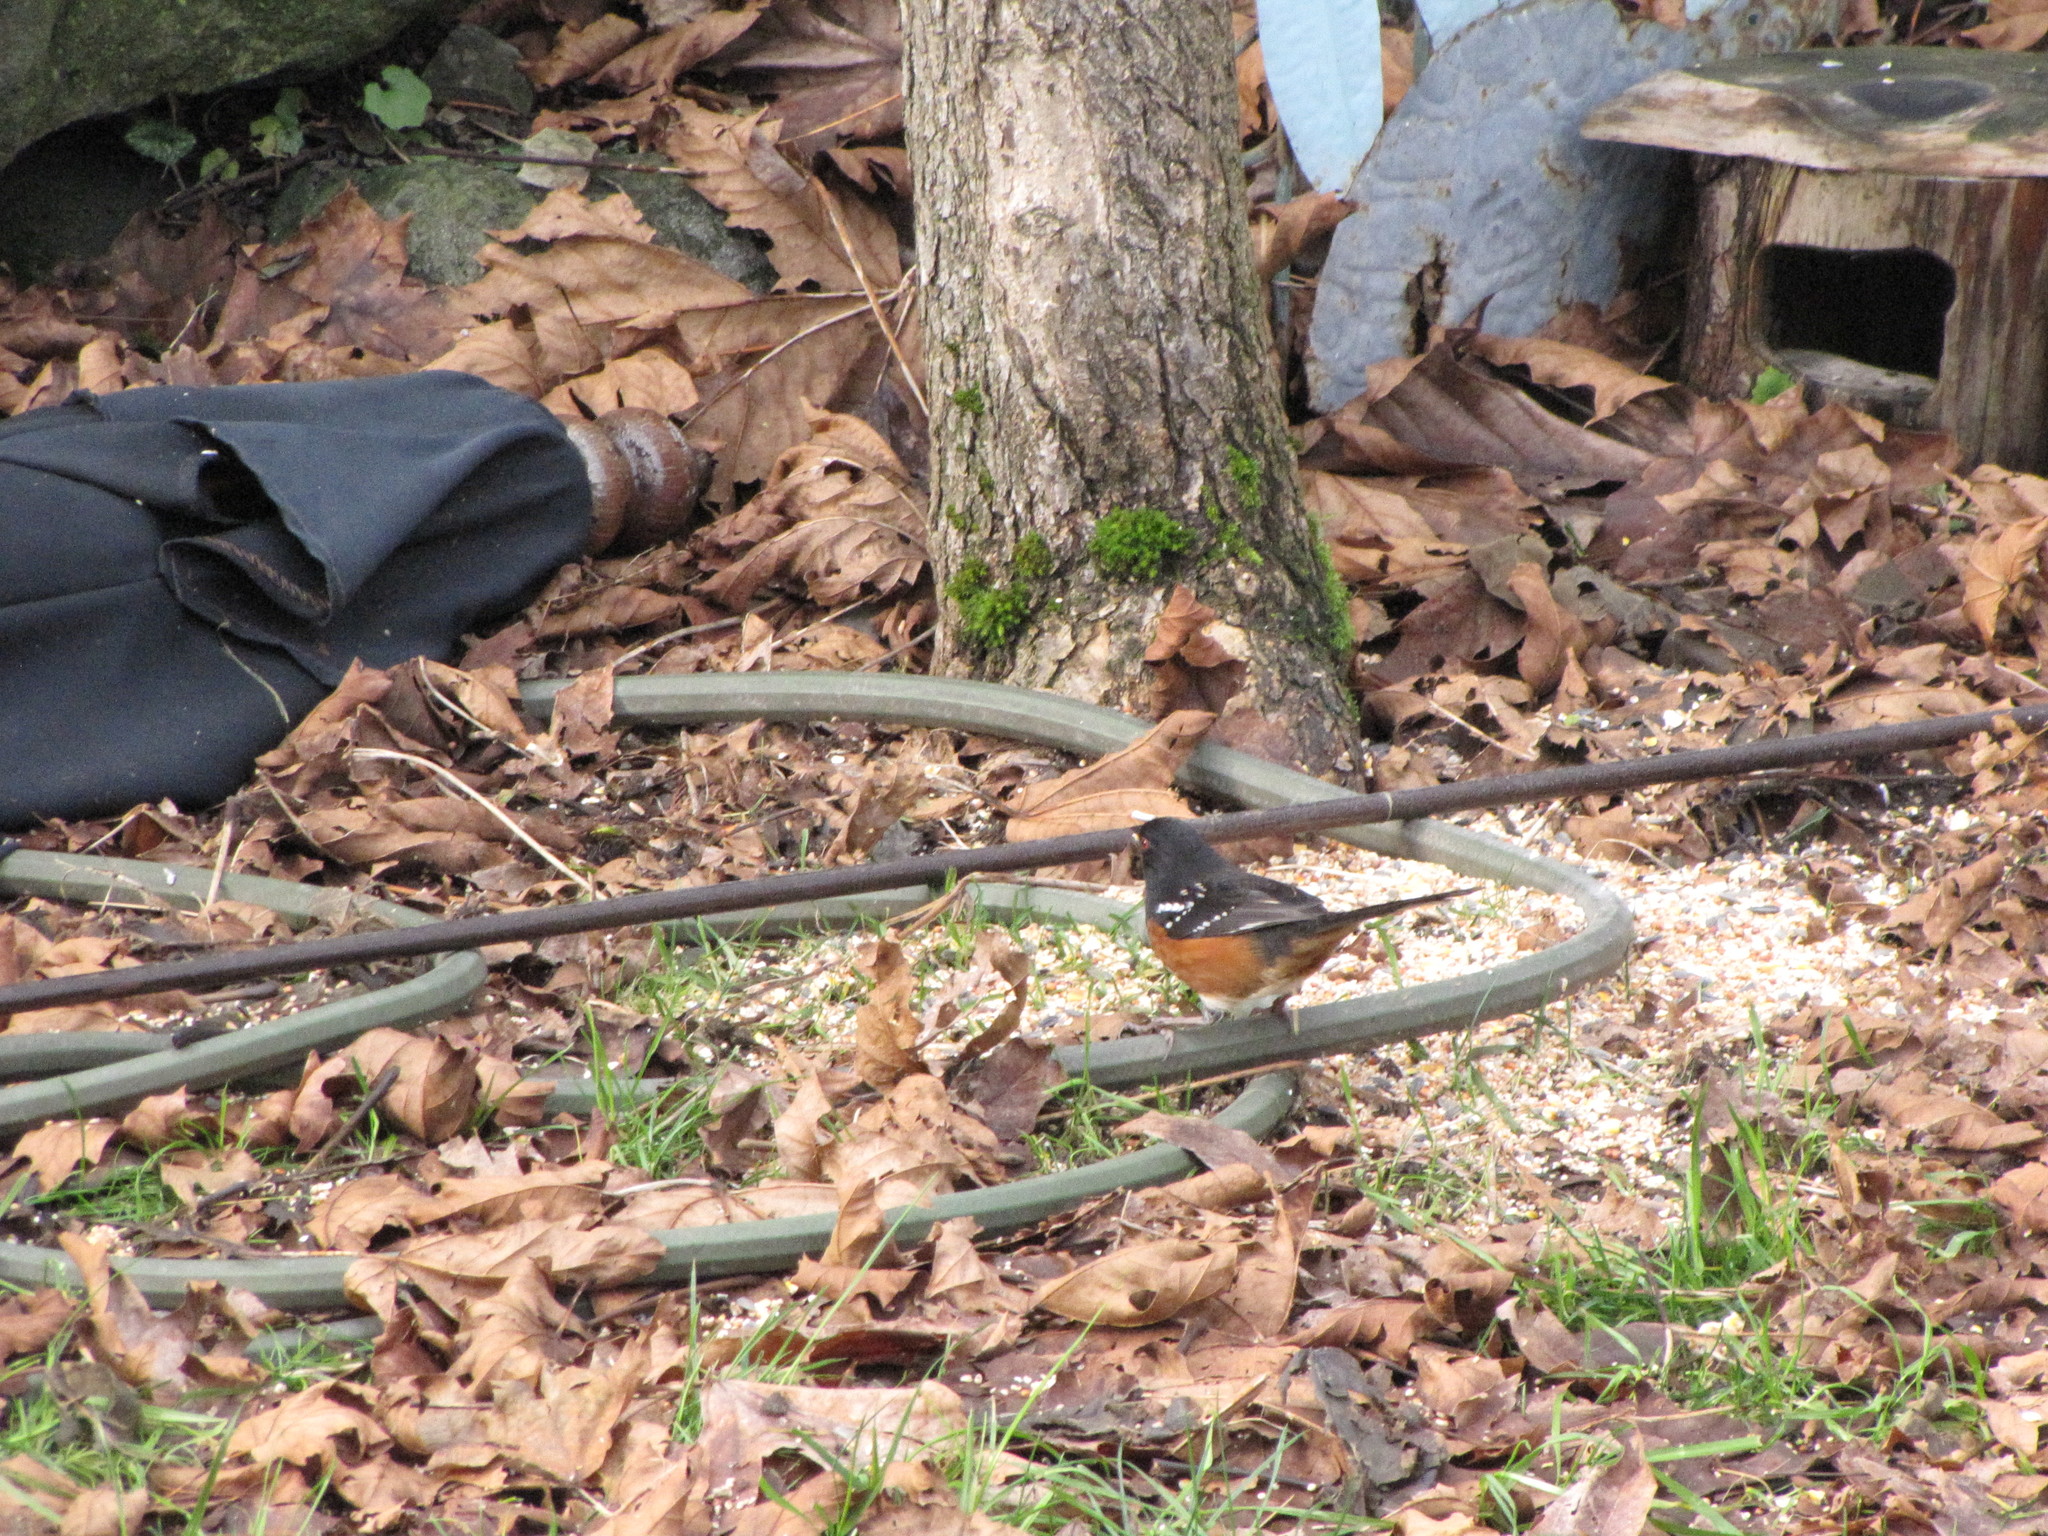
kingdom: Animalia
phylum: Chordata
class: Aves
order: Passeriformes
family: Passerellidae
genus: Pipilo
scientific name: Pipilo maculatus
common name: Spotted towhee
